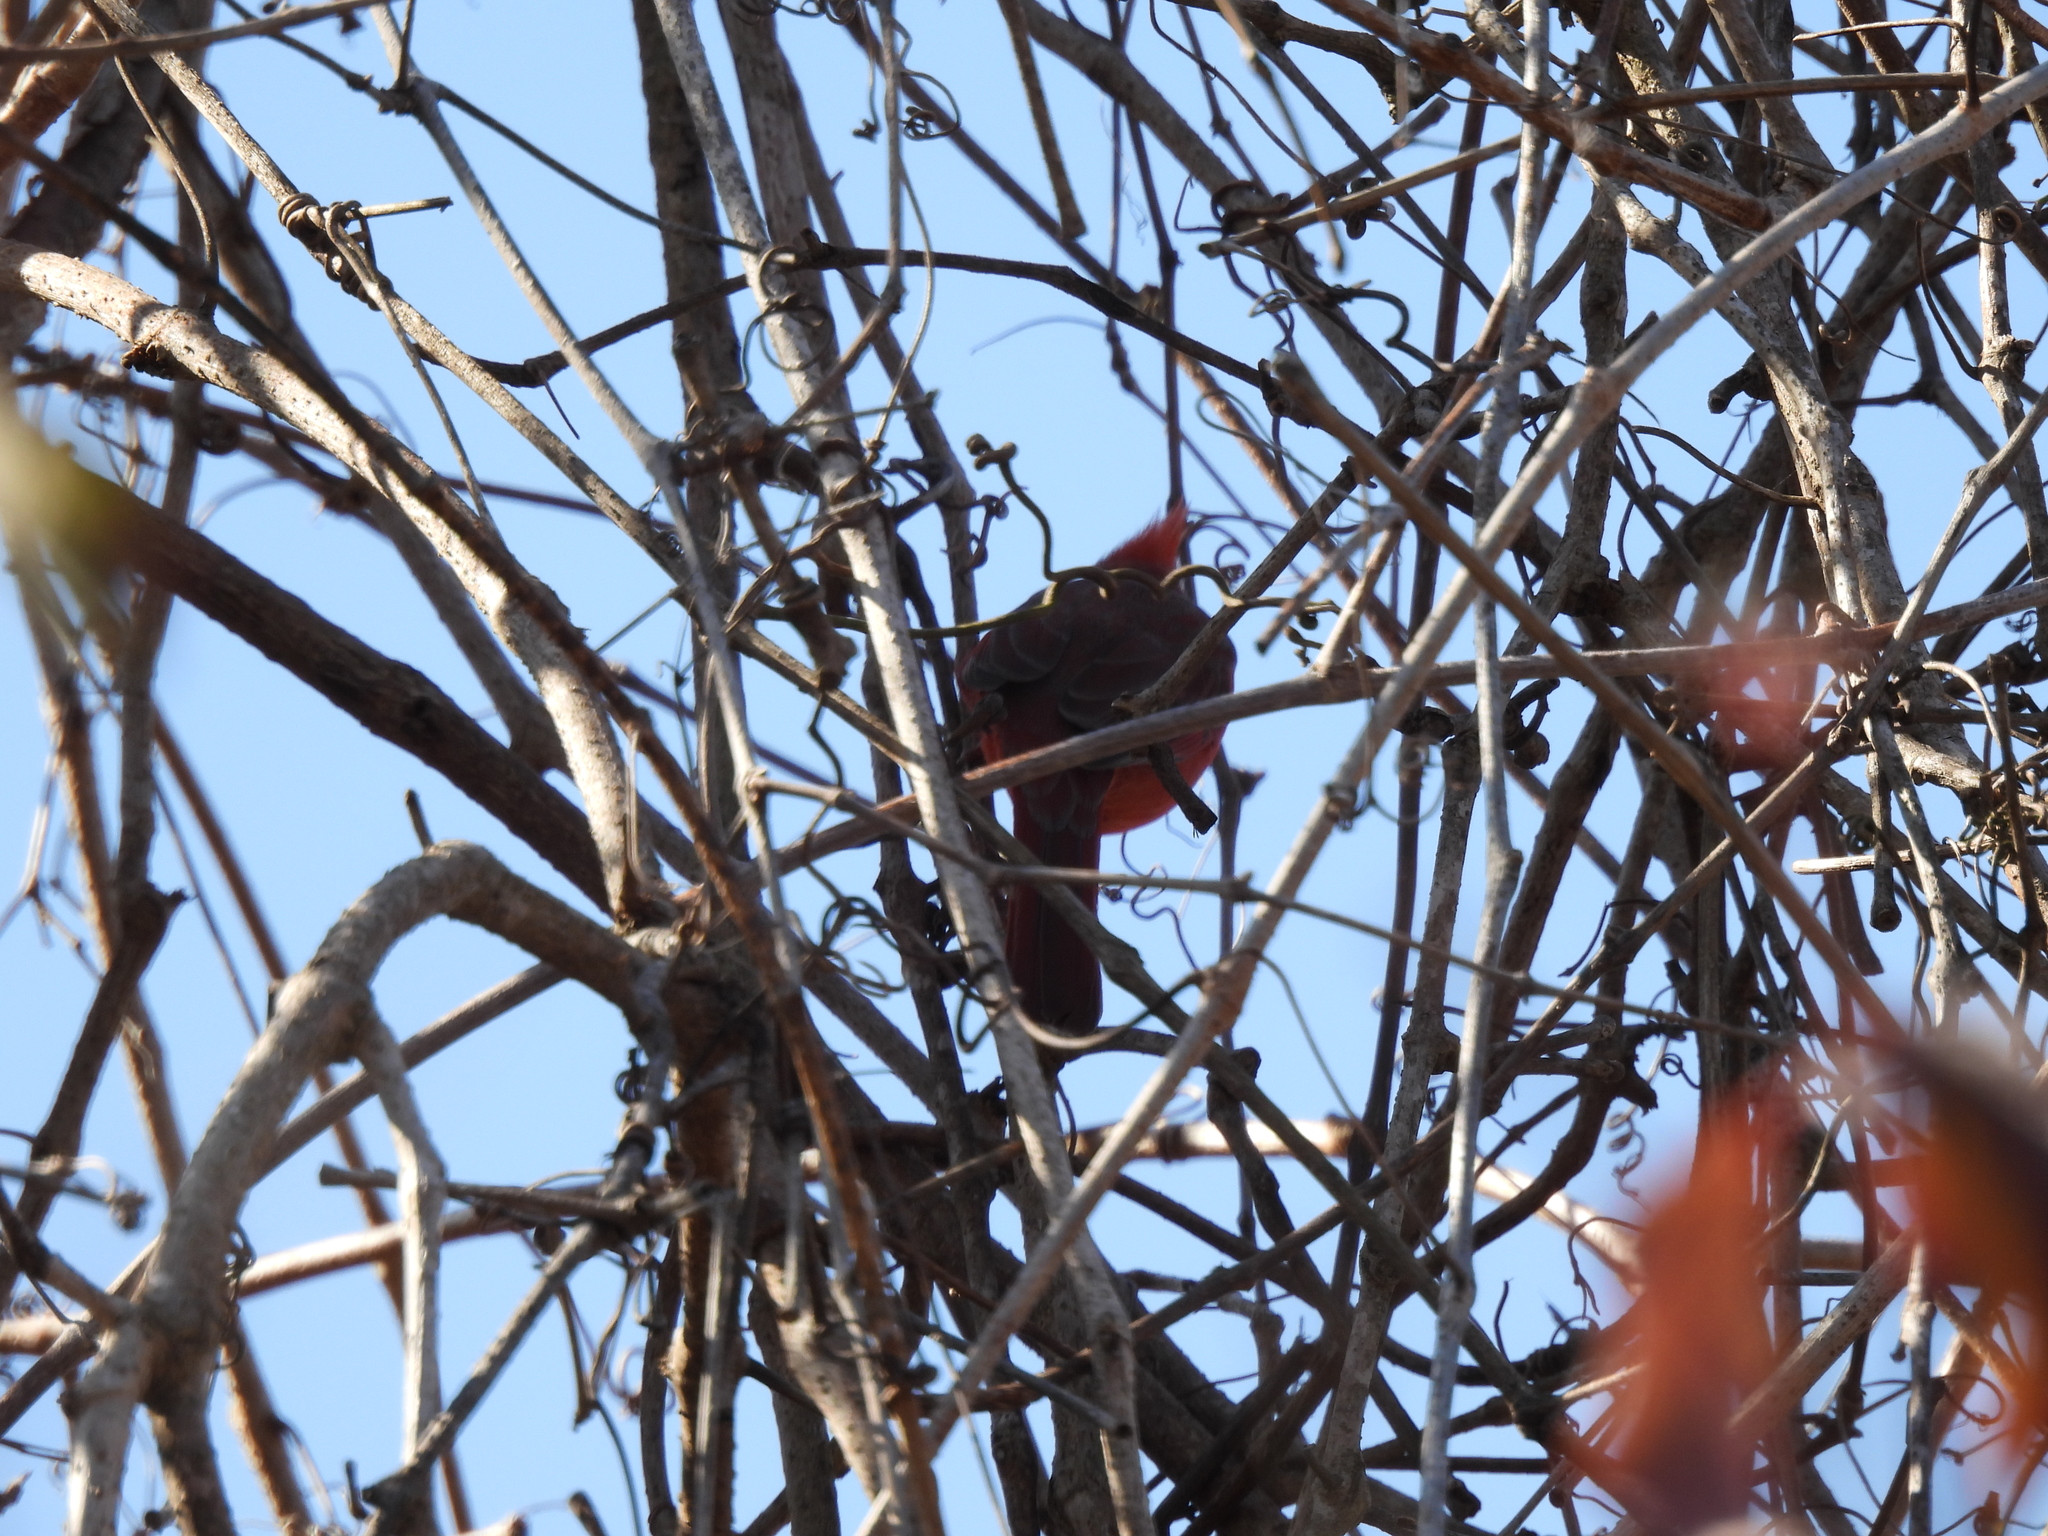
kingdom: Animalia
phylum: Chordata
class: Aves
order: Passeriformes
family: Cardinalidae
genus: Cardinalis
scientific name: Cardinalis cardinalis
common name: Northern cardinal
